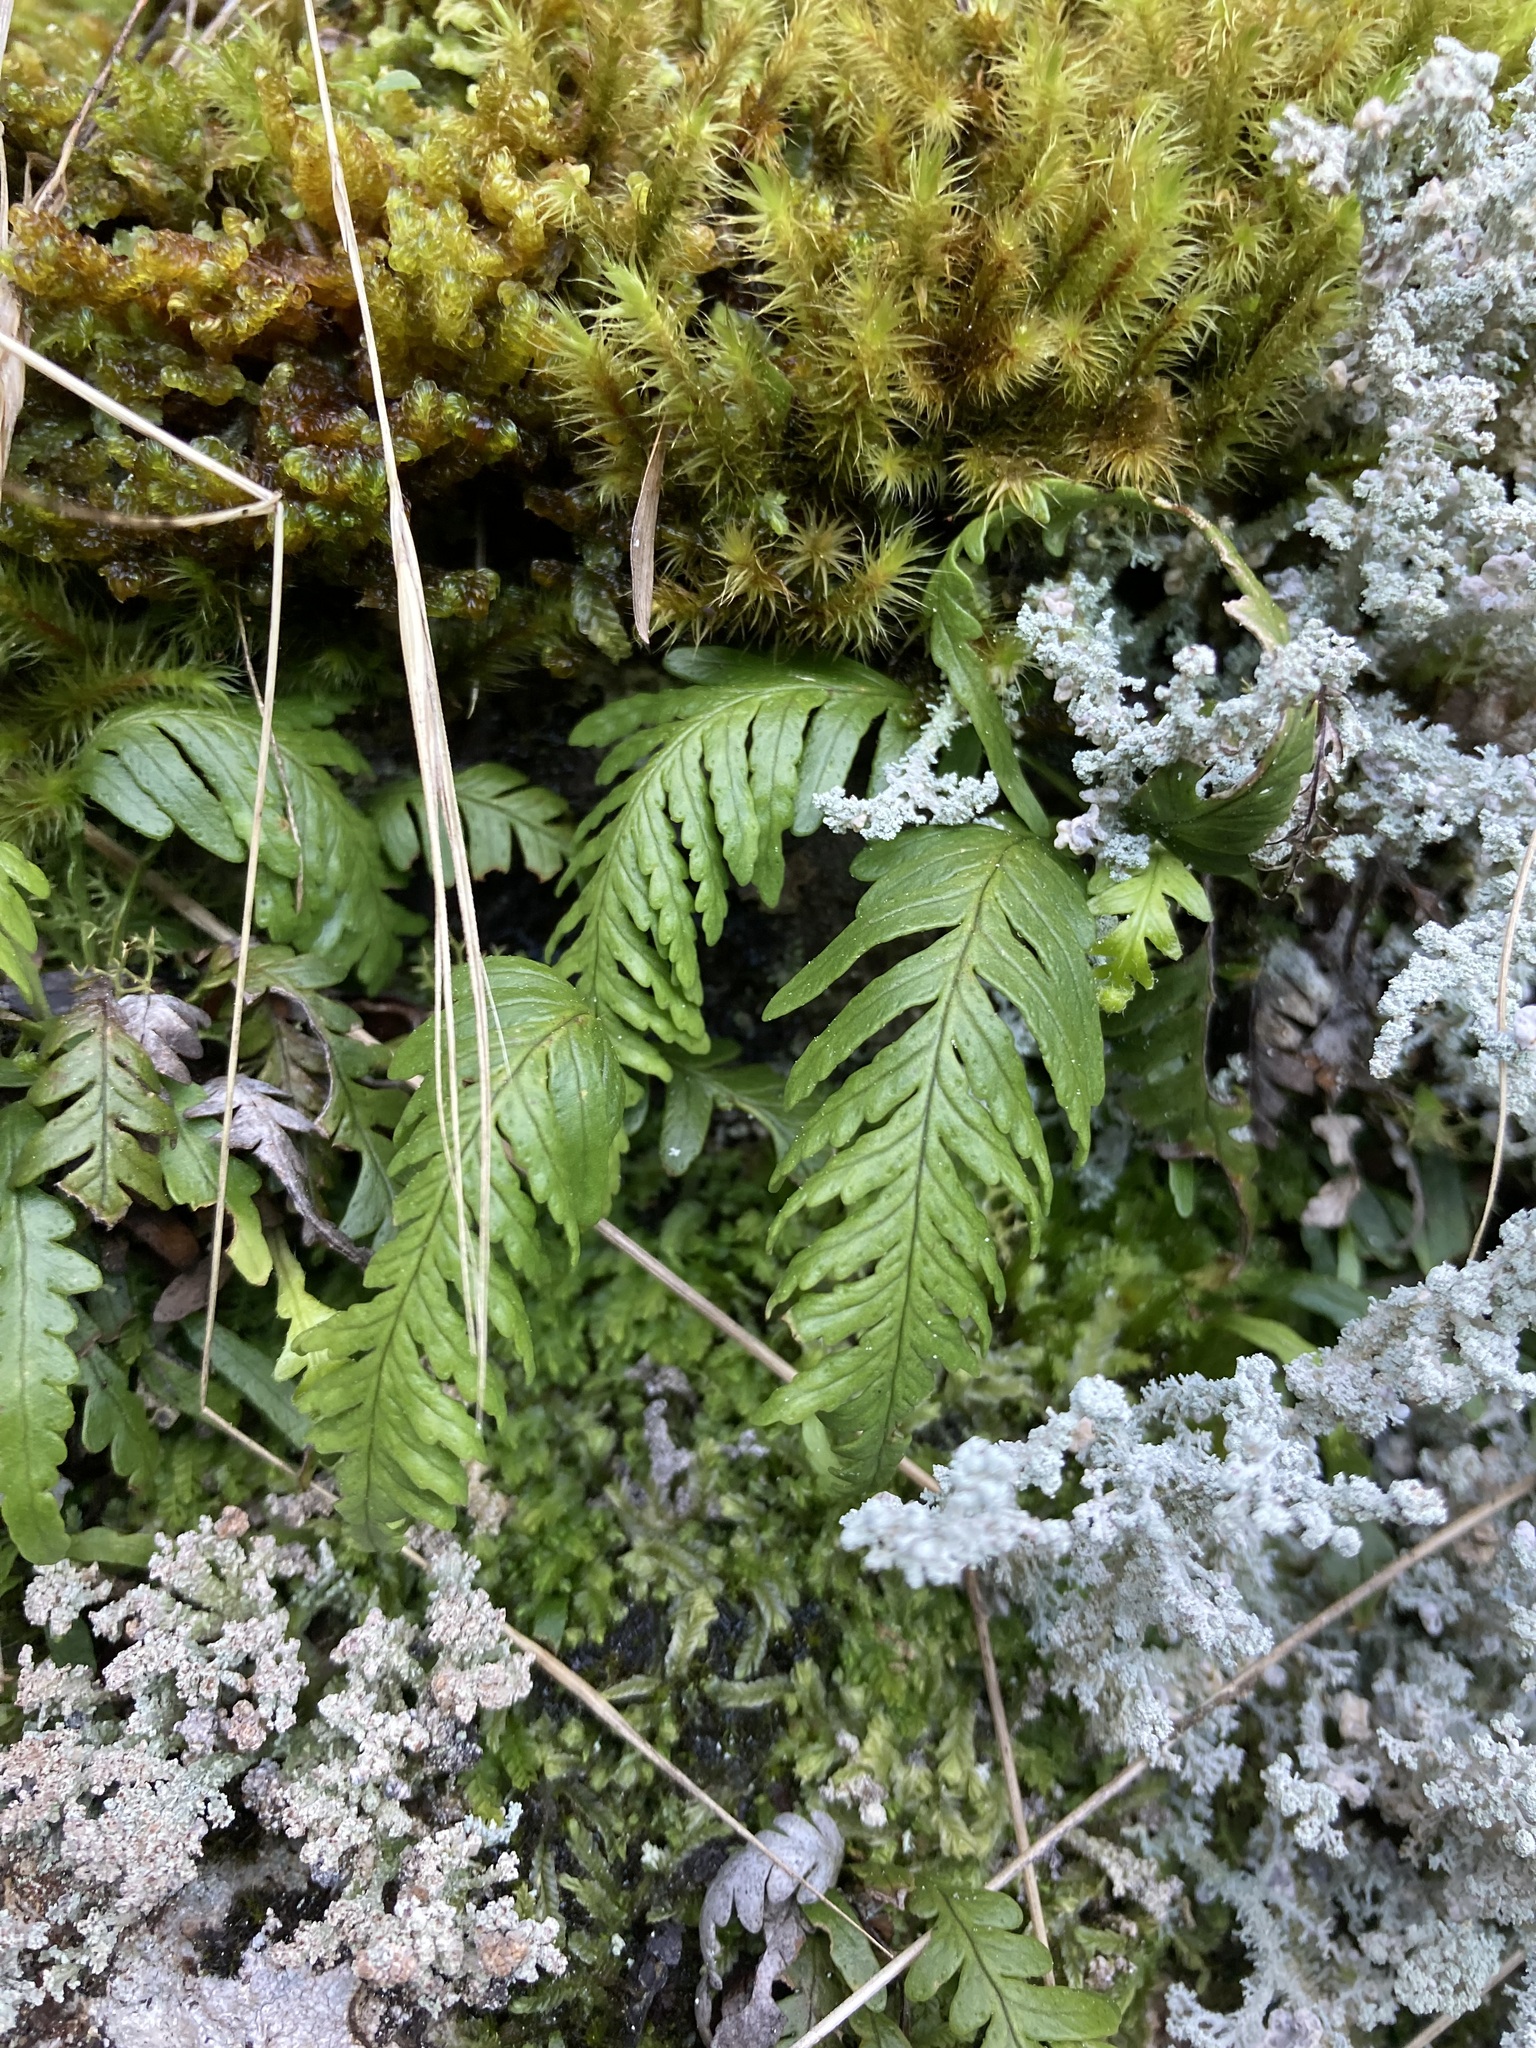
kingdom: Plantae
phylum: Tracheophyta
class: Polypodiopsida
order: Polypodiales
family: Polypodiaceae
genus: Notogrammitis
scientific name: Notogrammitis heterophylla
